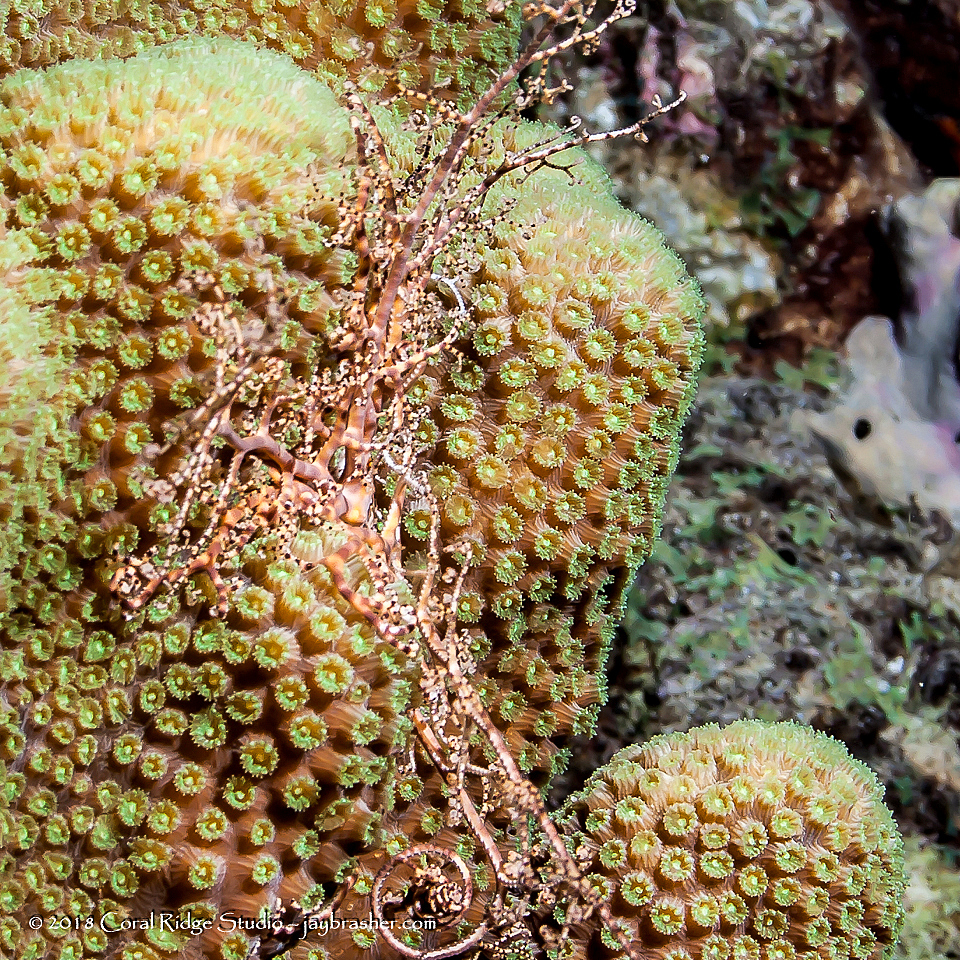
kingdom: Animalia
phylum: Echinodermata
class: Ophiuroidea
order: Euryalida
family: Gorgonocephalidae
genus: Astrophyton
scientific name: Astrophyton muricatum
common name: Basket starfish
